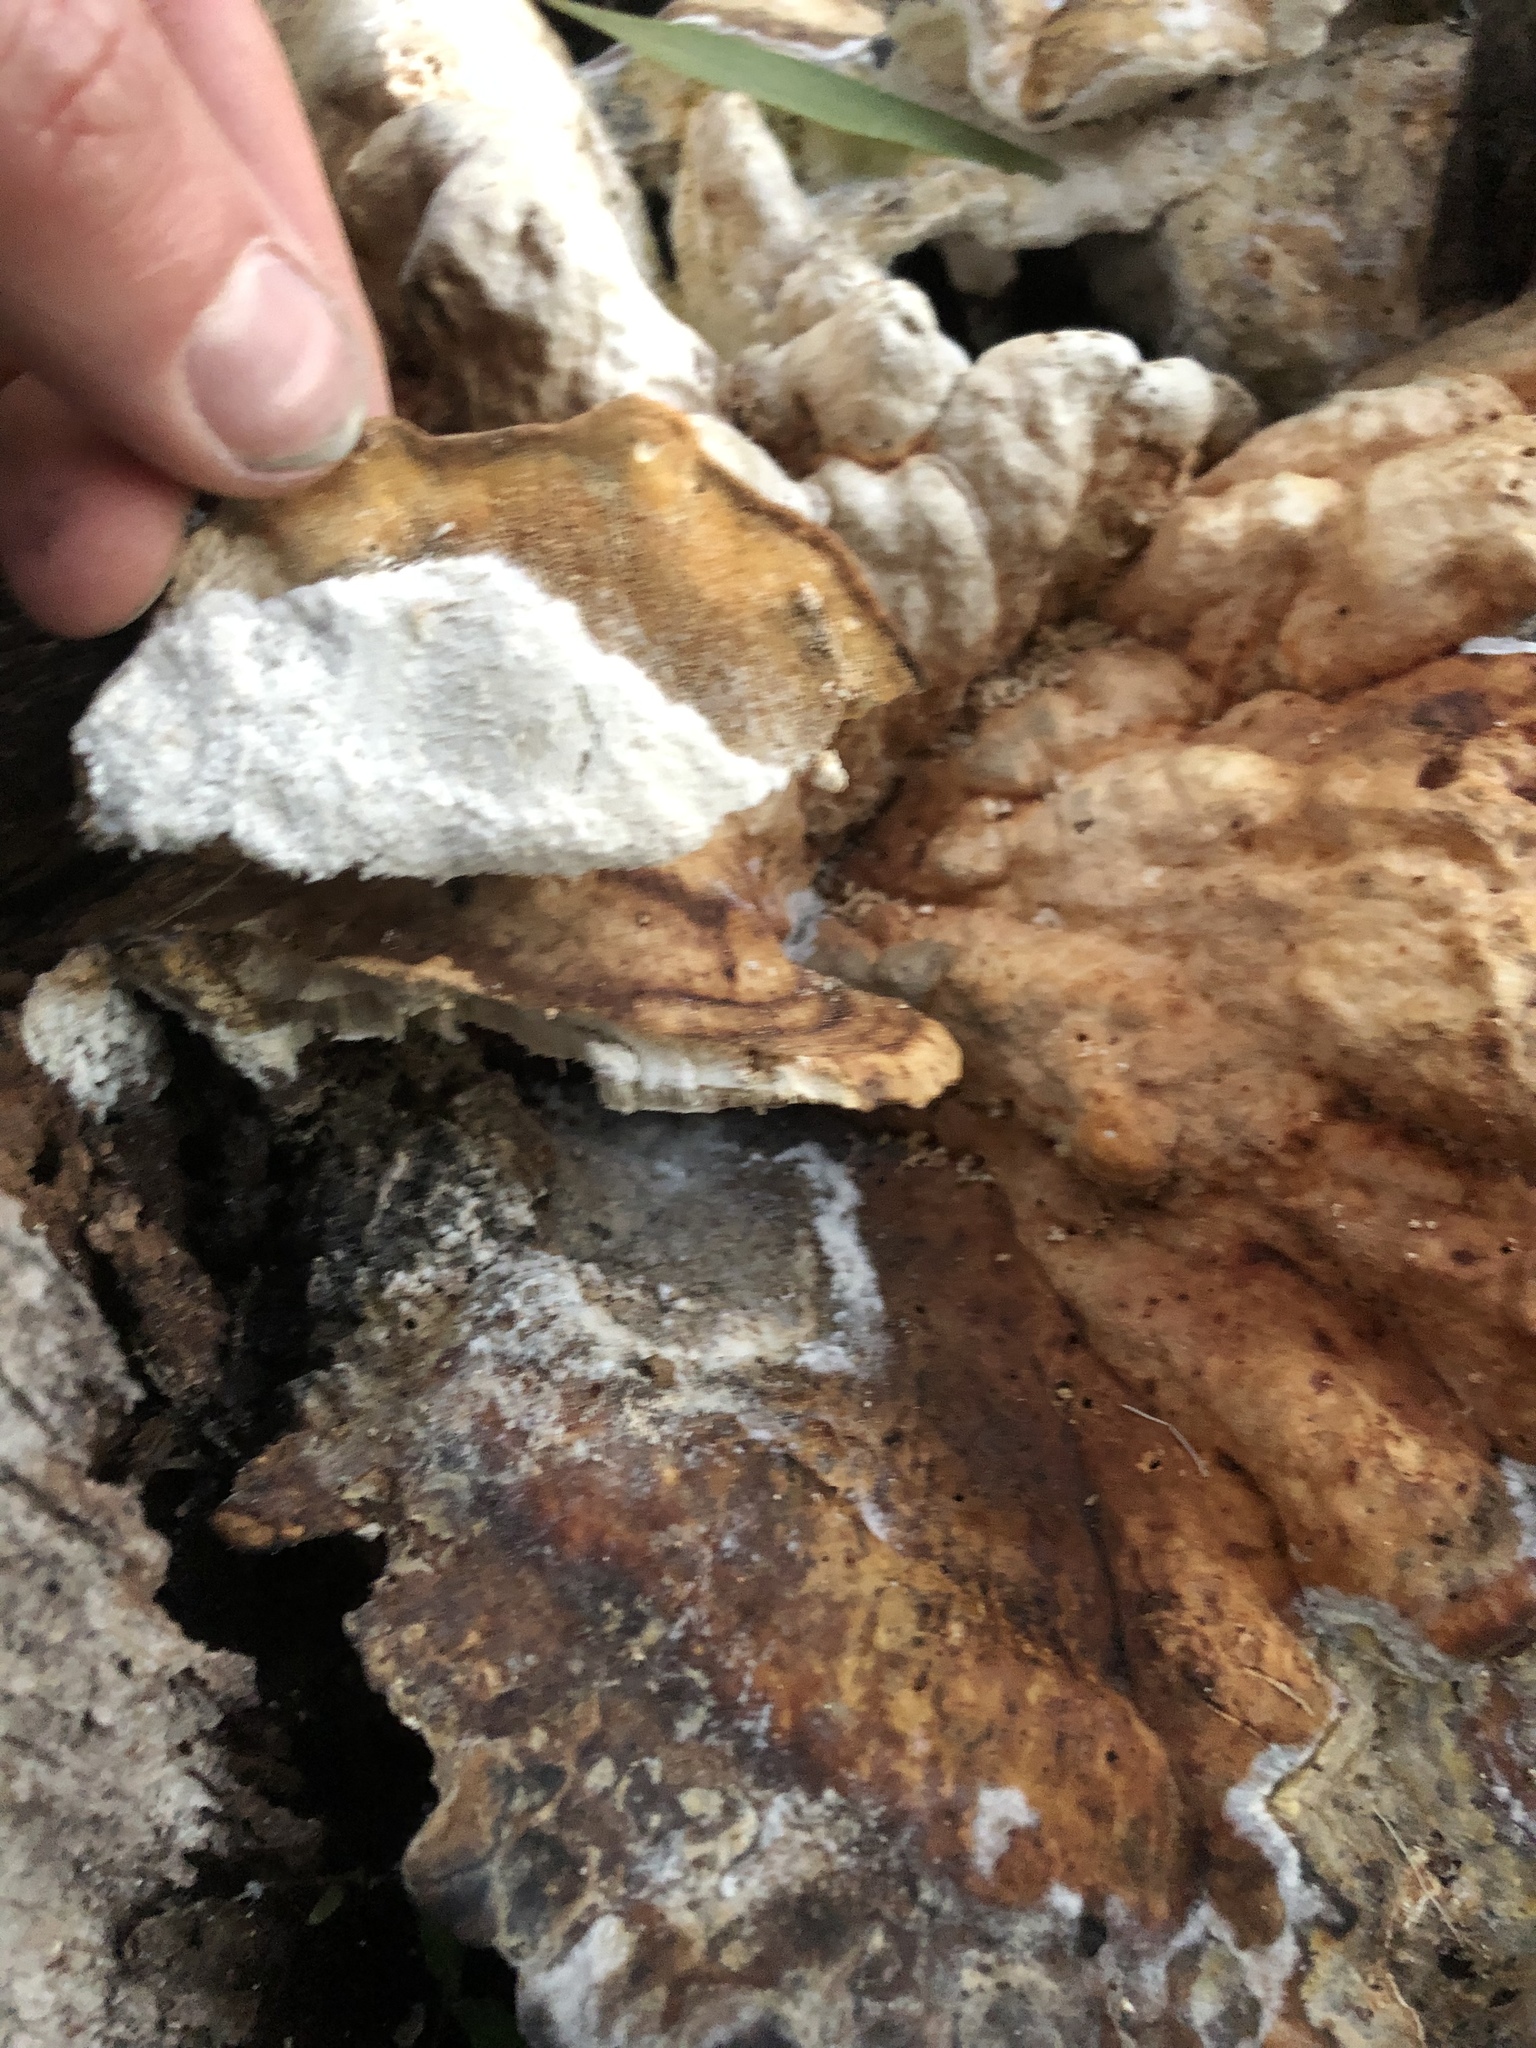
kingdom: Fungi
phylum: Basidiomycota
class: Agaricomycetes
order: Polyporales
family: Laetiporaceae
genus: Laetiporus
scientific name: Laetiporus gilbertsonii
